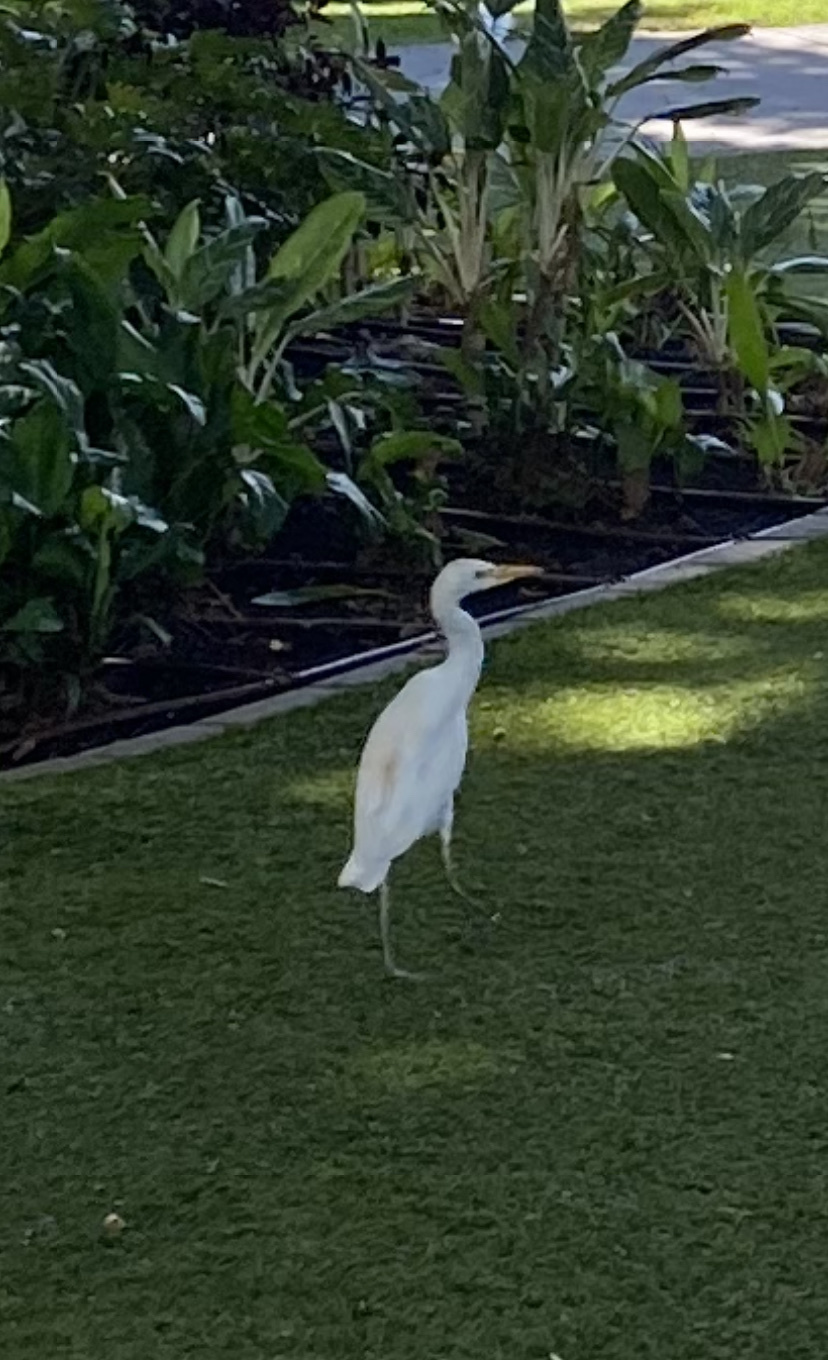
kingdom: Animalia
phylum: Chordata
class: Aves
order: Pelecaniformes
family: Ardeidae
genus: Bubulcus
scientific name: Bubulcus ibis
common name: Cattle egret
